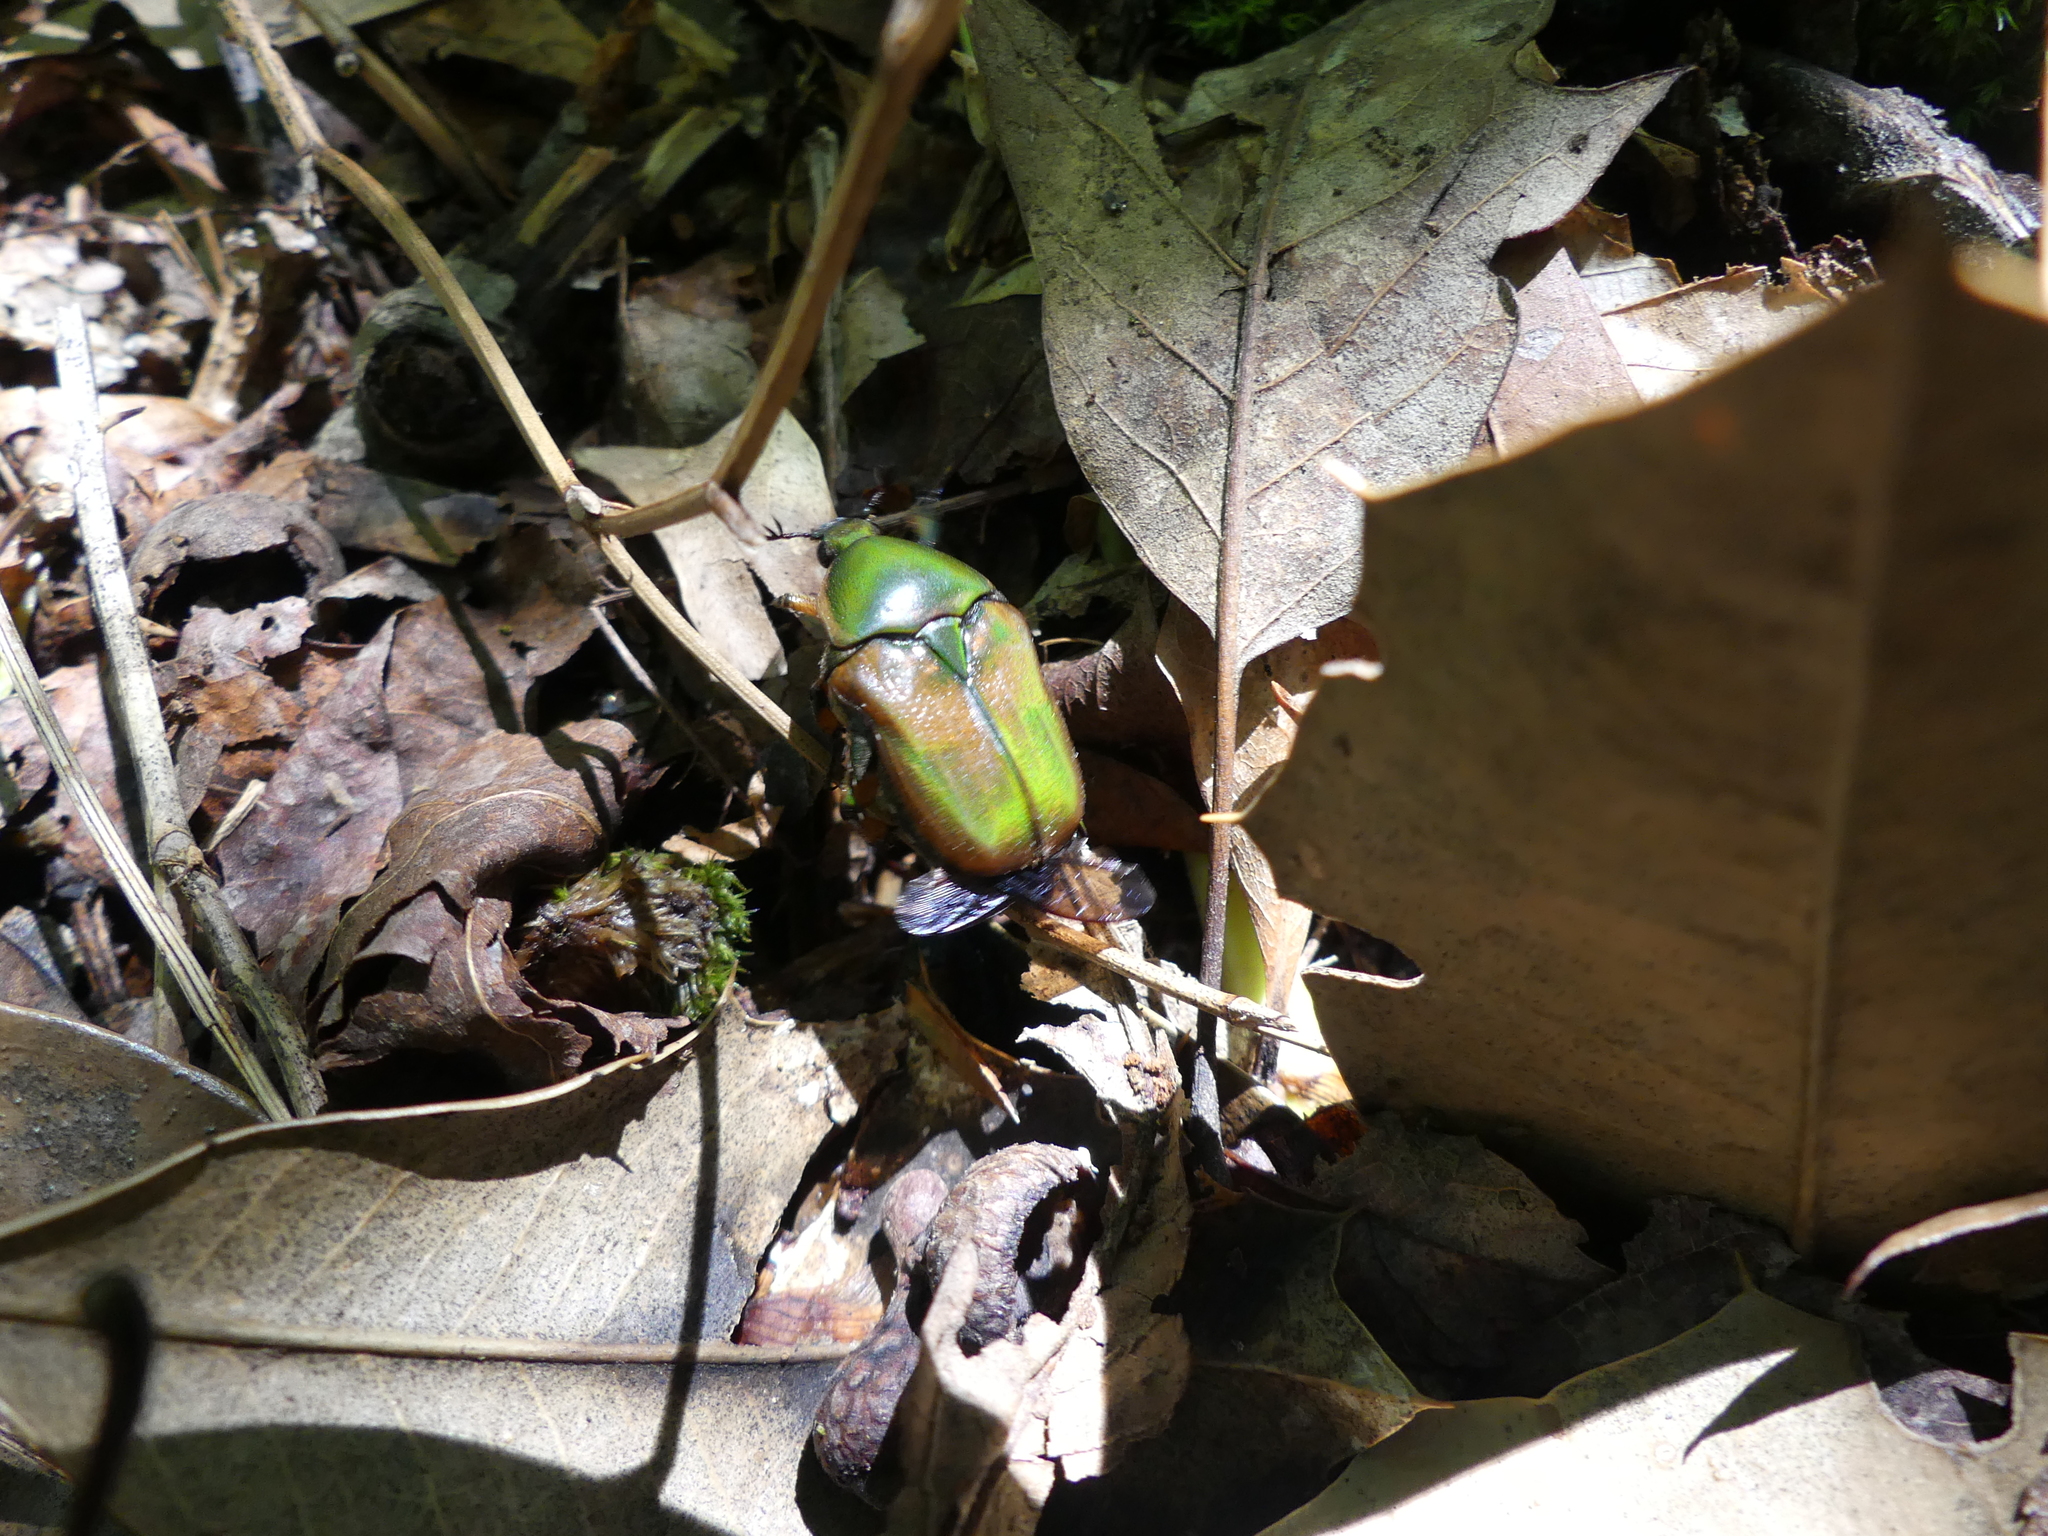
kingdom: Animalia
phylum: Arthropoda
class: Insecta
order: Coleoptera
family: Scarabaeidae
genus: Euphoria
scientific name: Euphoria fulgida
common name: Emerald euphoria
